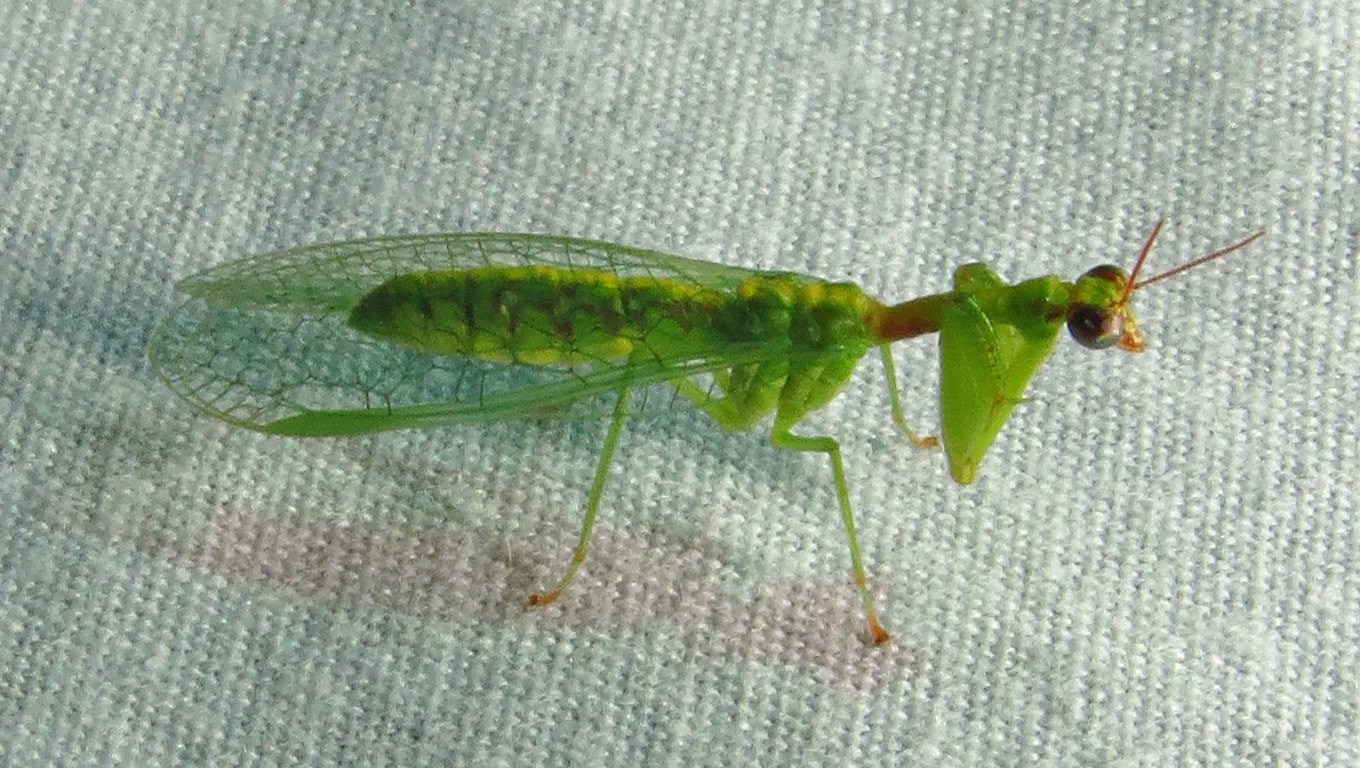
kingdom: Animalia
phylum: Arthropoda
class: Insecta
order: Neuroptera
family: Mantispidae
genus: Zeugomantispa
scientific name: Zeugomantispa minuta
